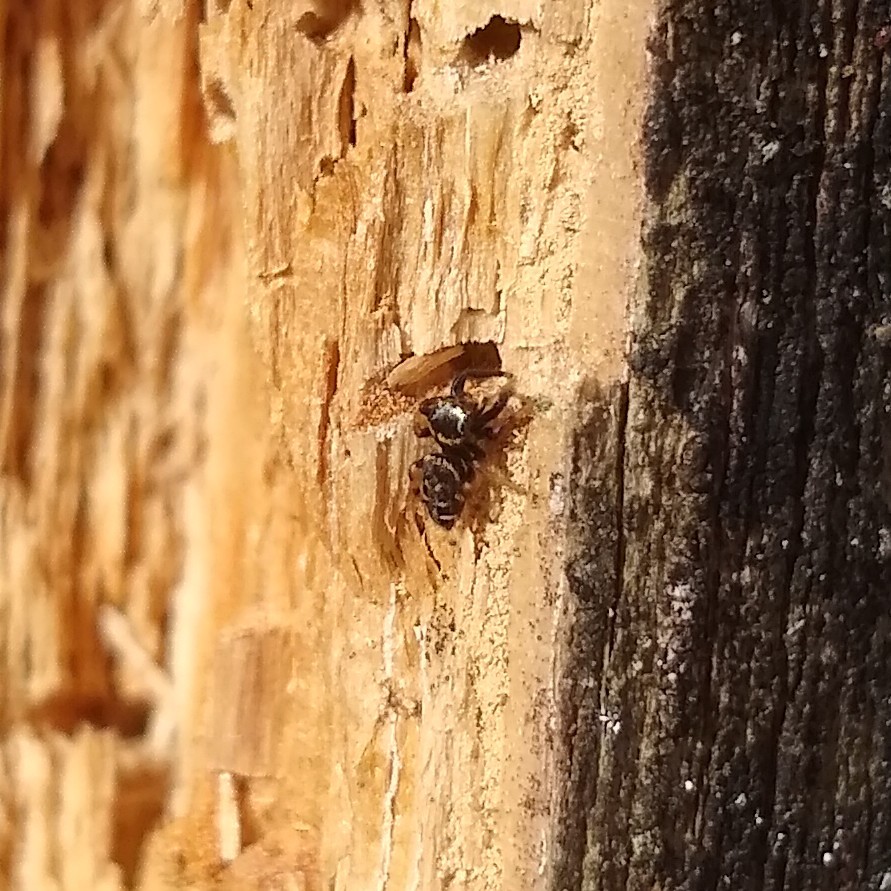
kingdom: Animalia
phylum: Arthropoda
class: Arachnida
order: Araneae
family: Salticidae
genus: Paraphidippus
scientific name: Paraphidippus aurantius
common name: Jumping spiders
